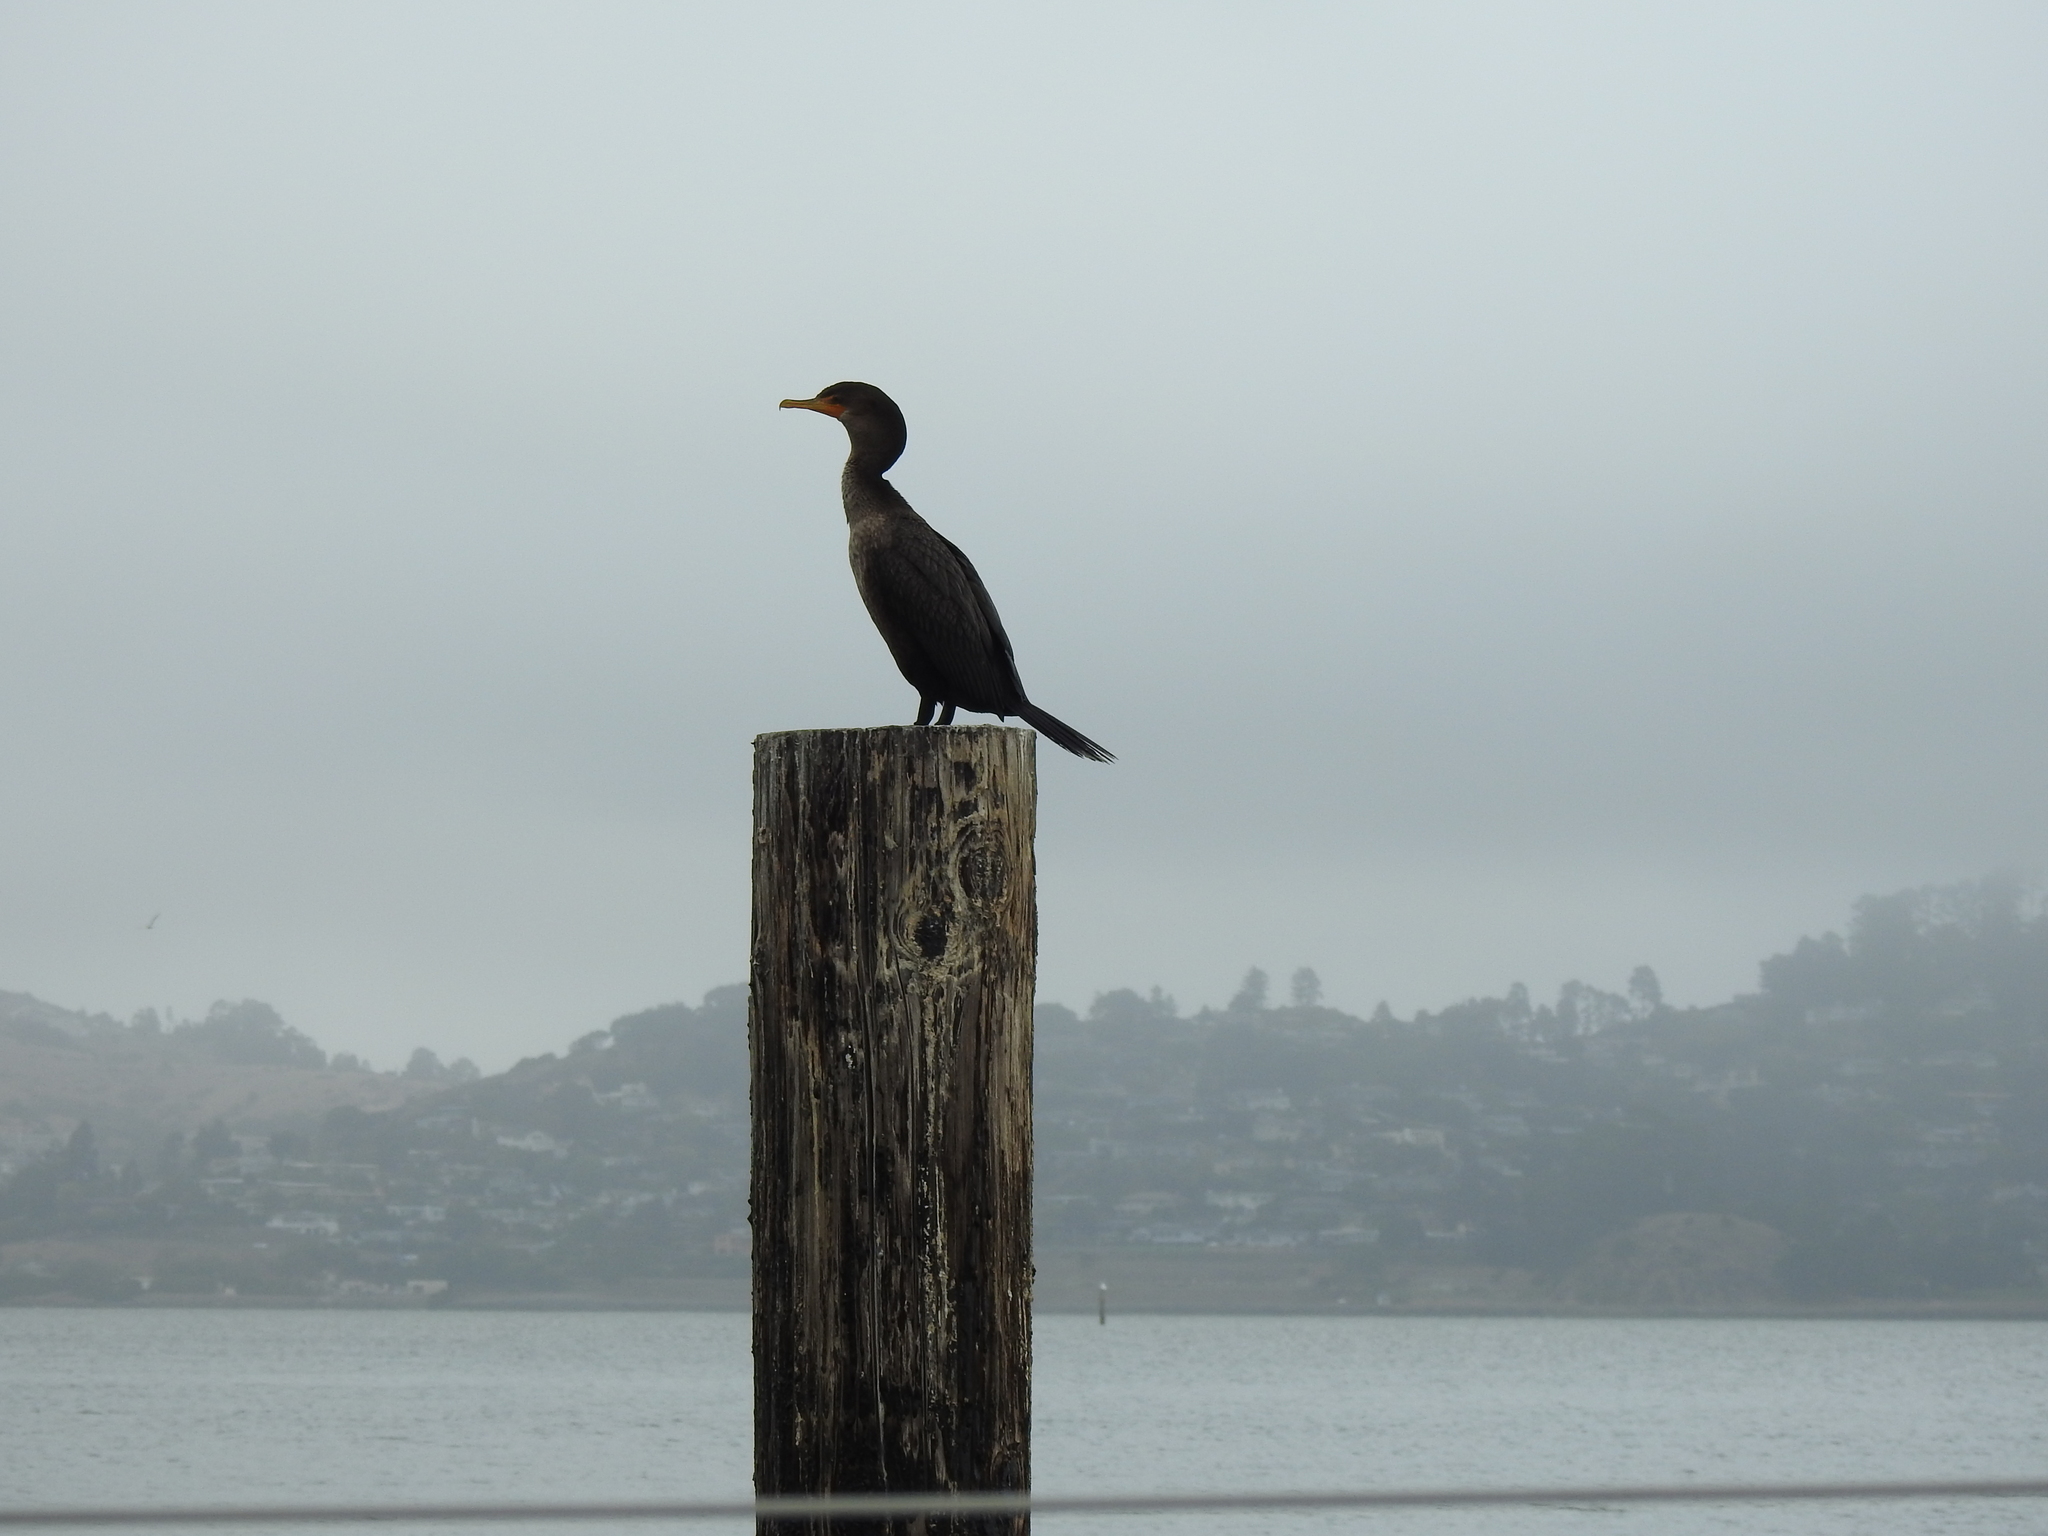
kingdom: Animalia
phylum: Chordata
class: Aves
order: Suliformes
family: Phalacrocoracidae
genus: Phalacrocorax
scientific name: Phalacrocorax auritus
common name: Double-crested cormorant
